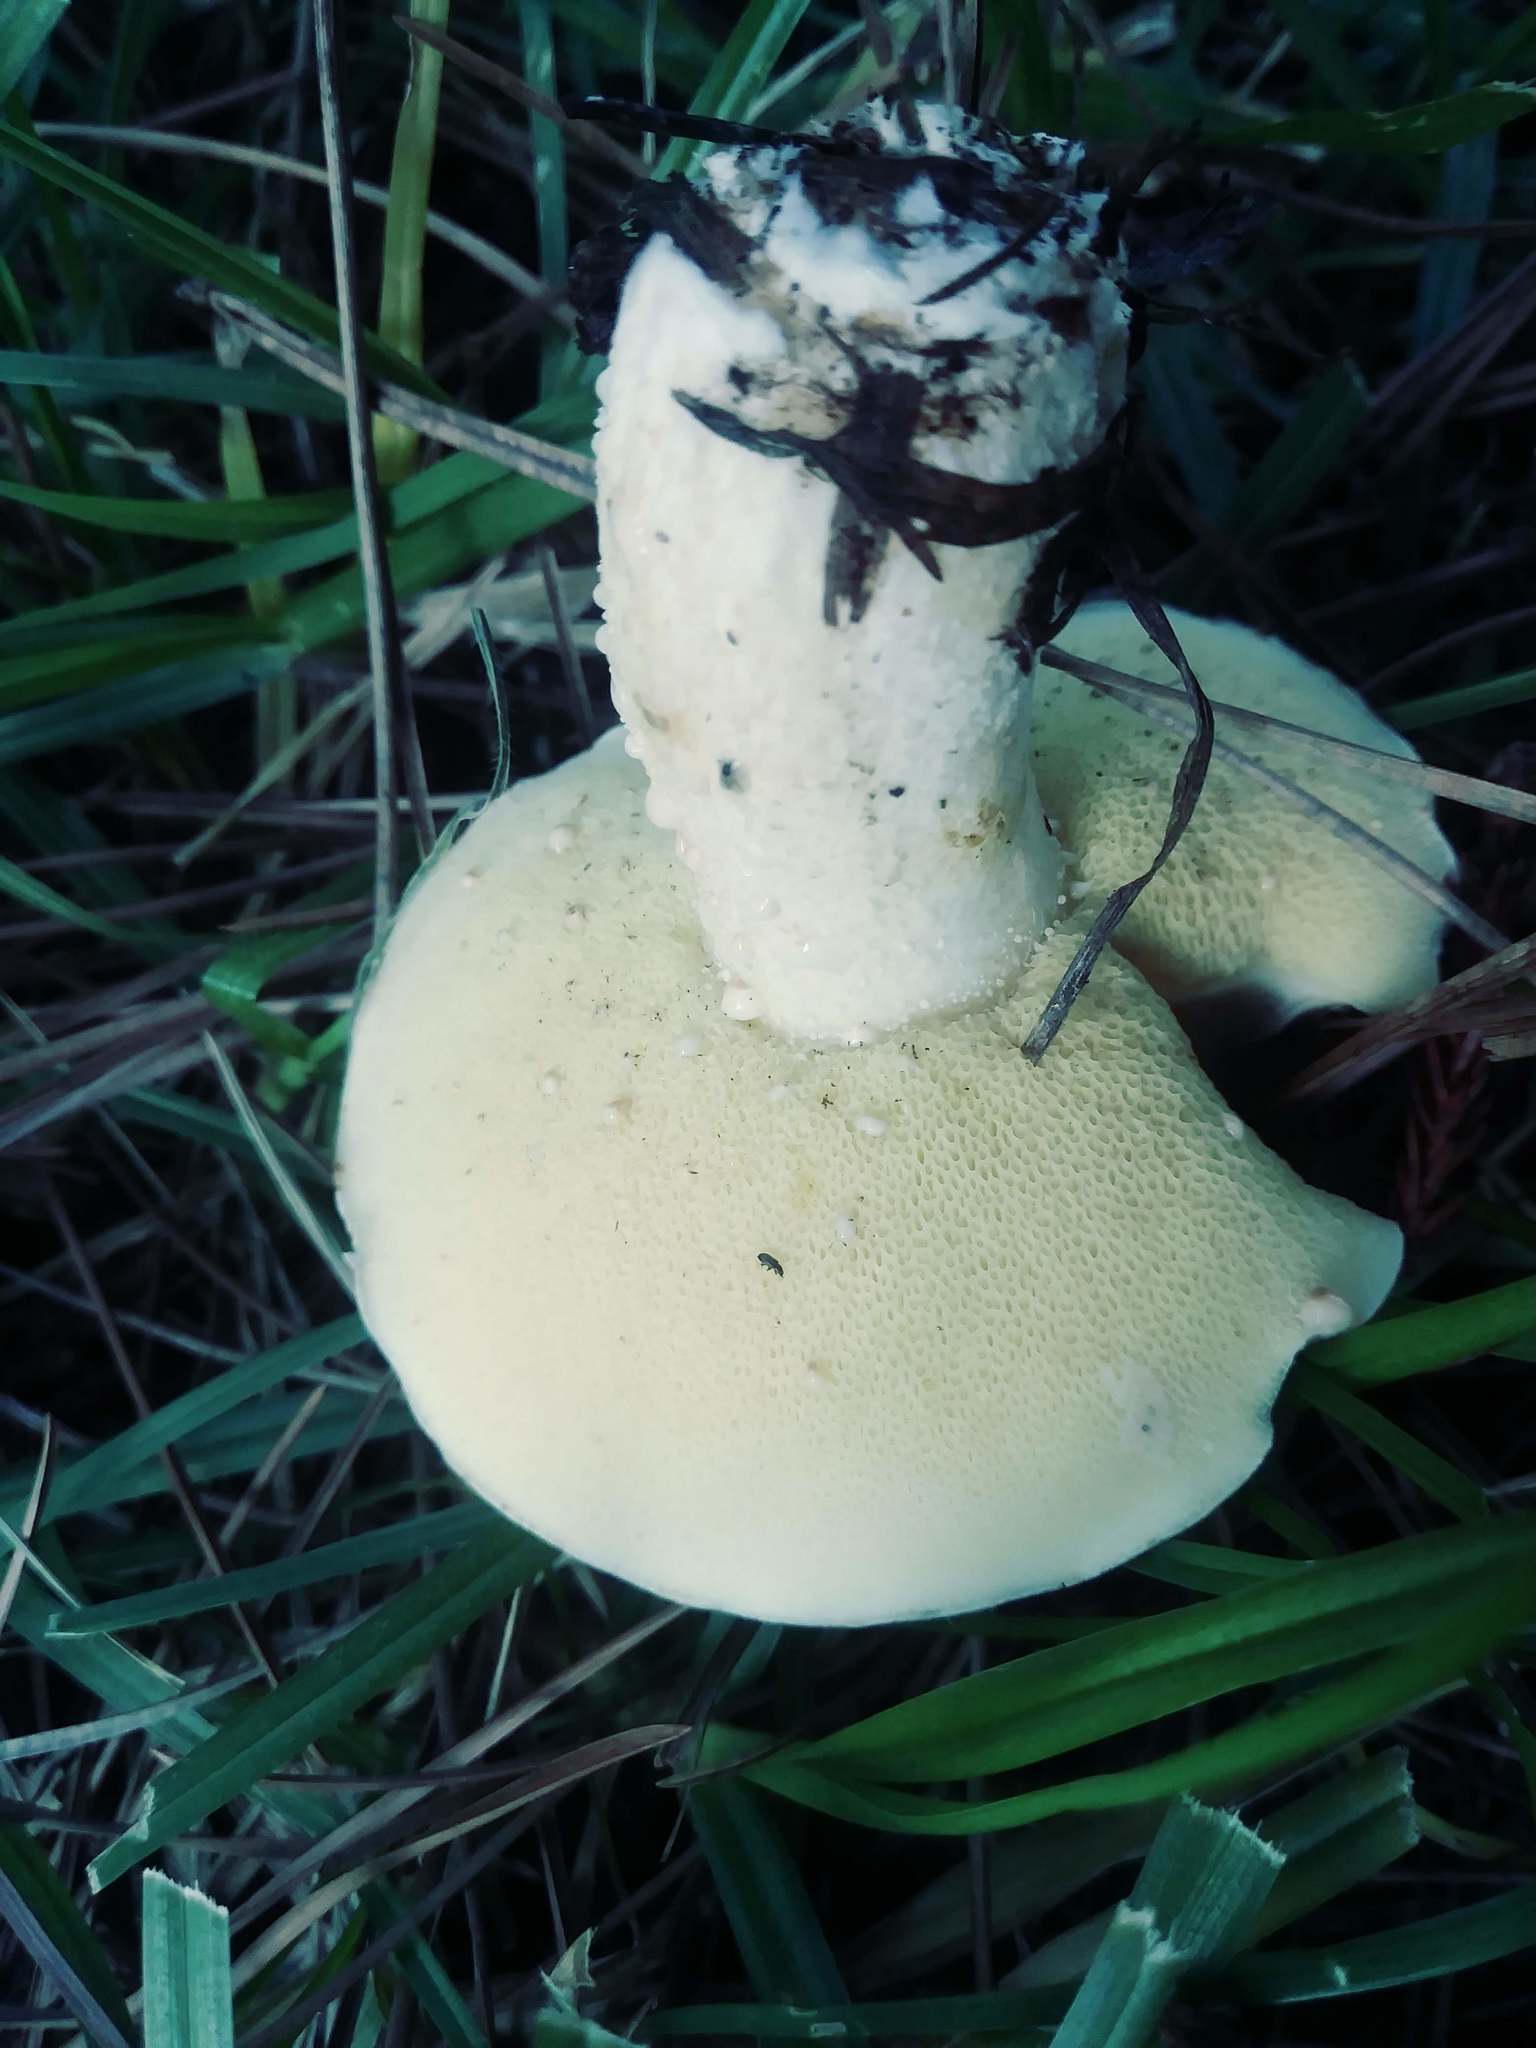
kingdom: Fungi
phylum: Basidiomycota
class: Agaricomycetes
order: Boletales
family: Suillaceae
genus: Suillus
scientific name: Suillus pungens
